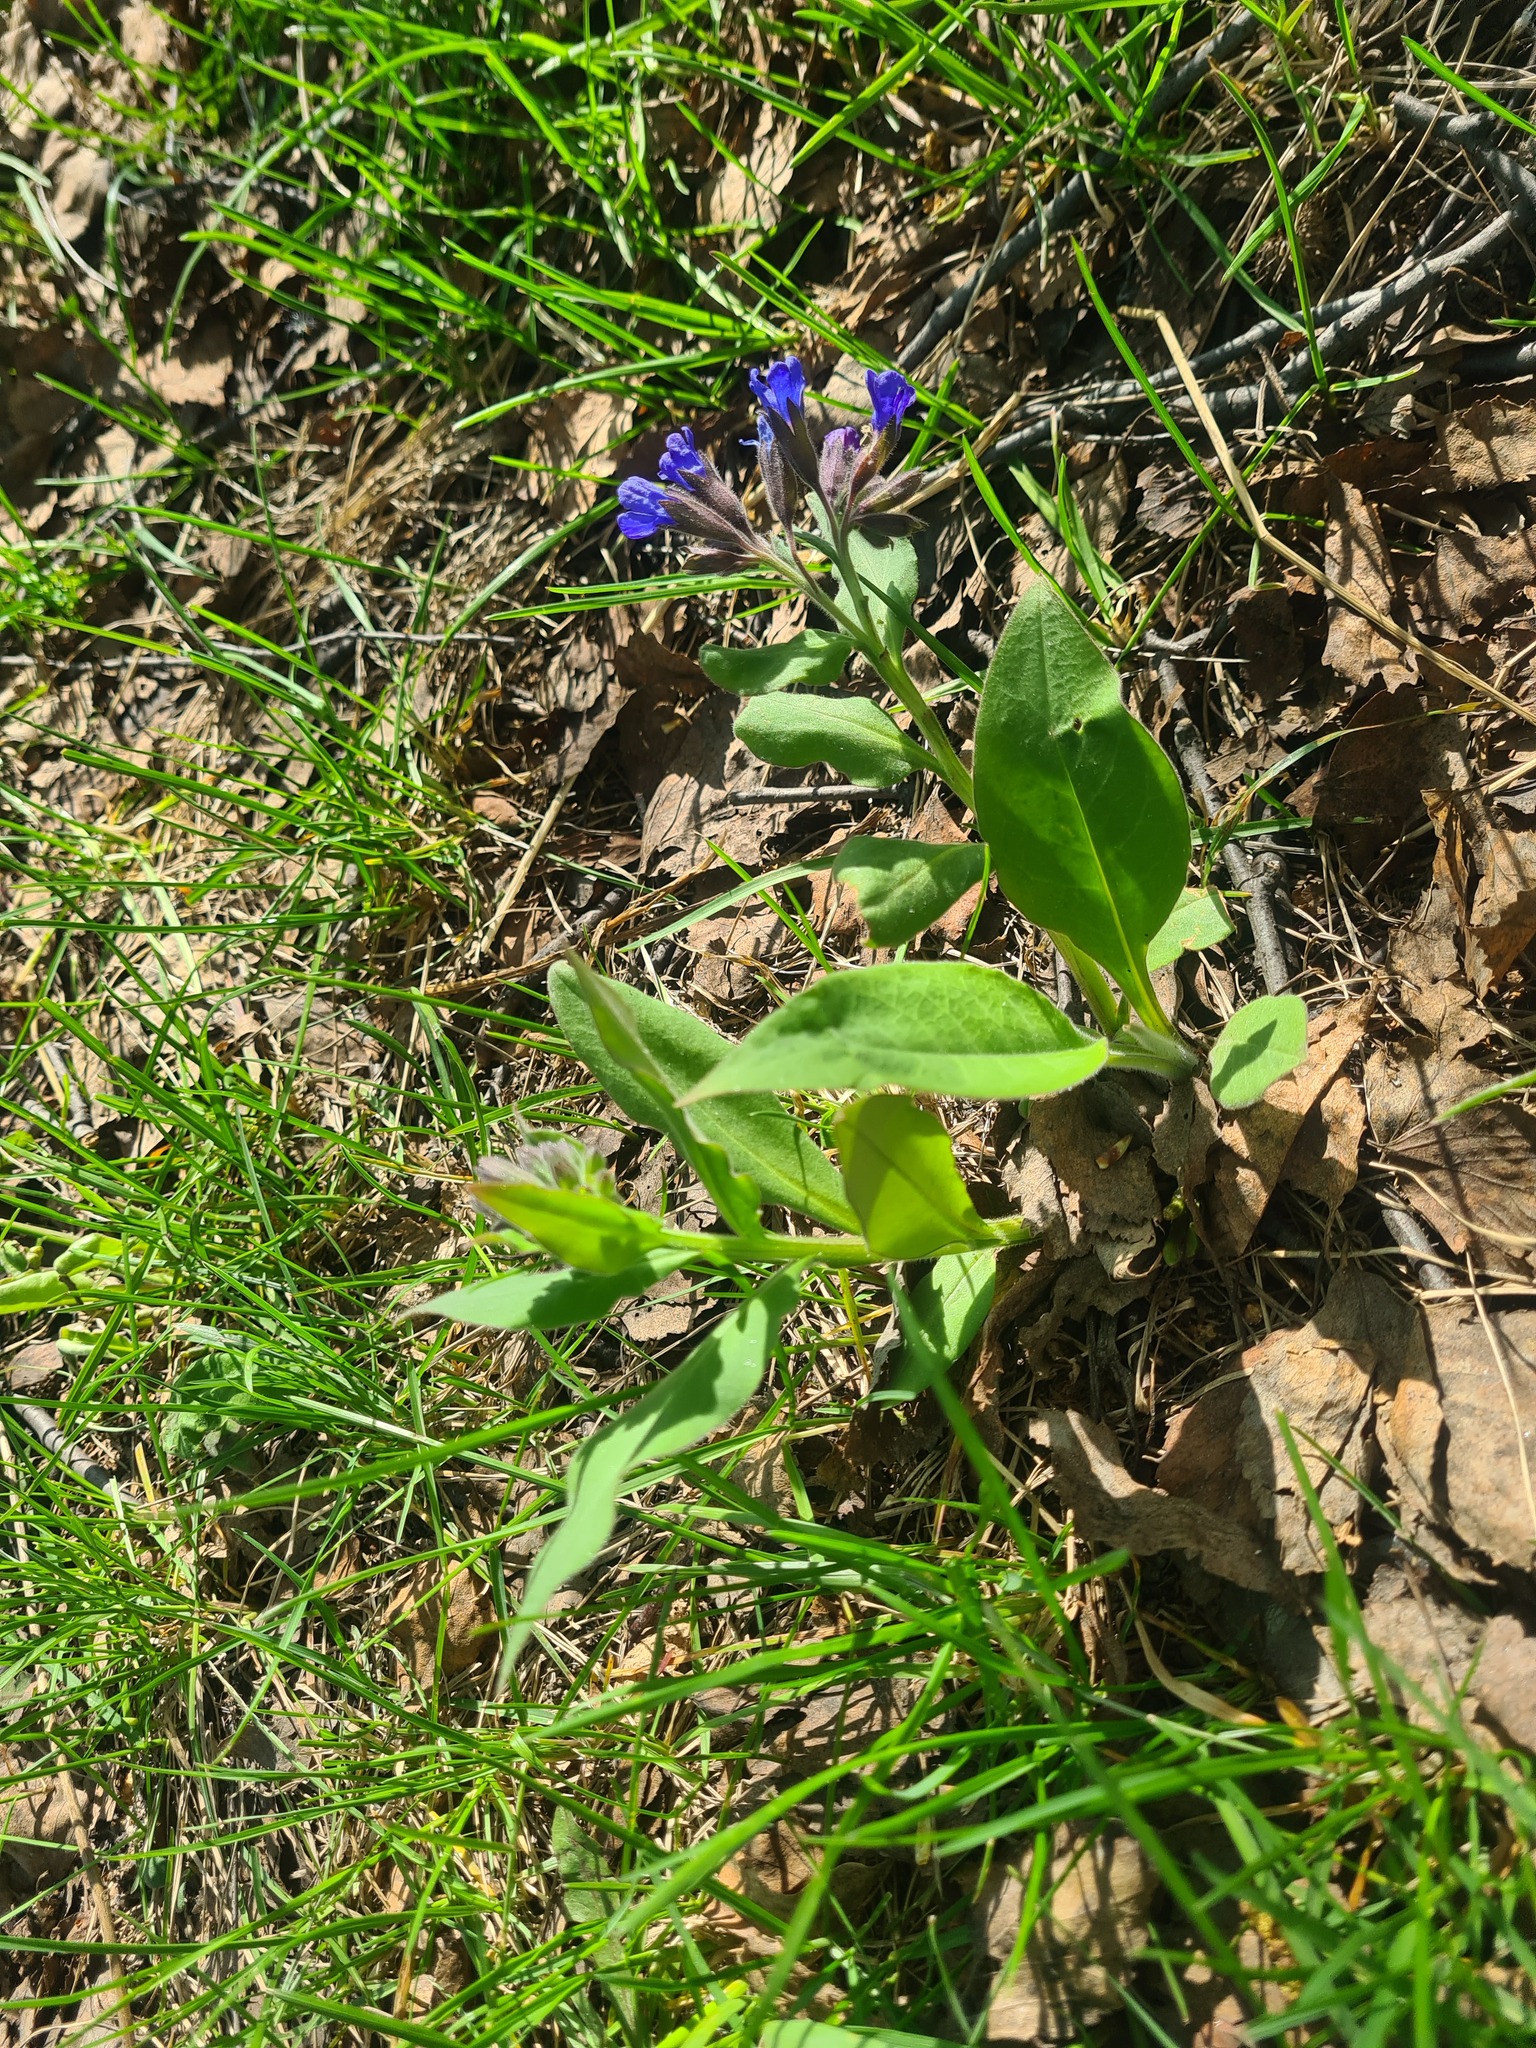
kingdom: Plantae
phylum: Tracheophyta
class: Magnoliopsida
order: Boraginales
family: Boraginaceae
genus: Pulmonaria
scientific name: Pulmonaria mollis
